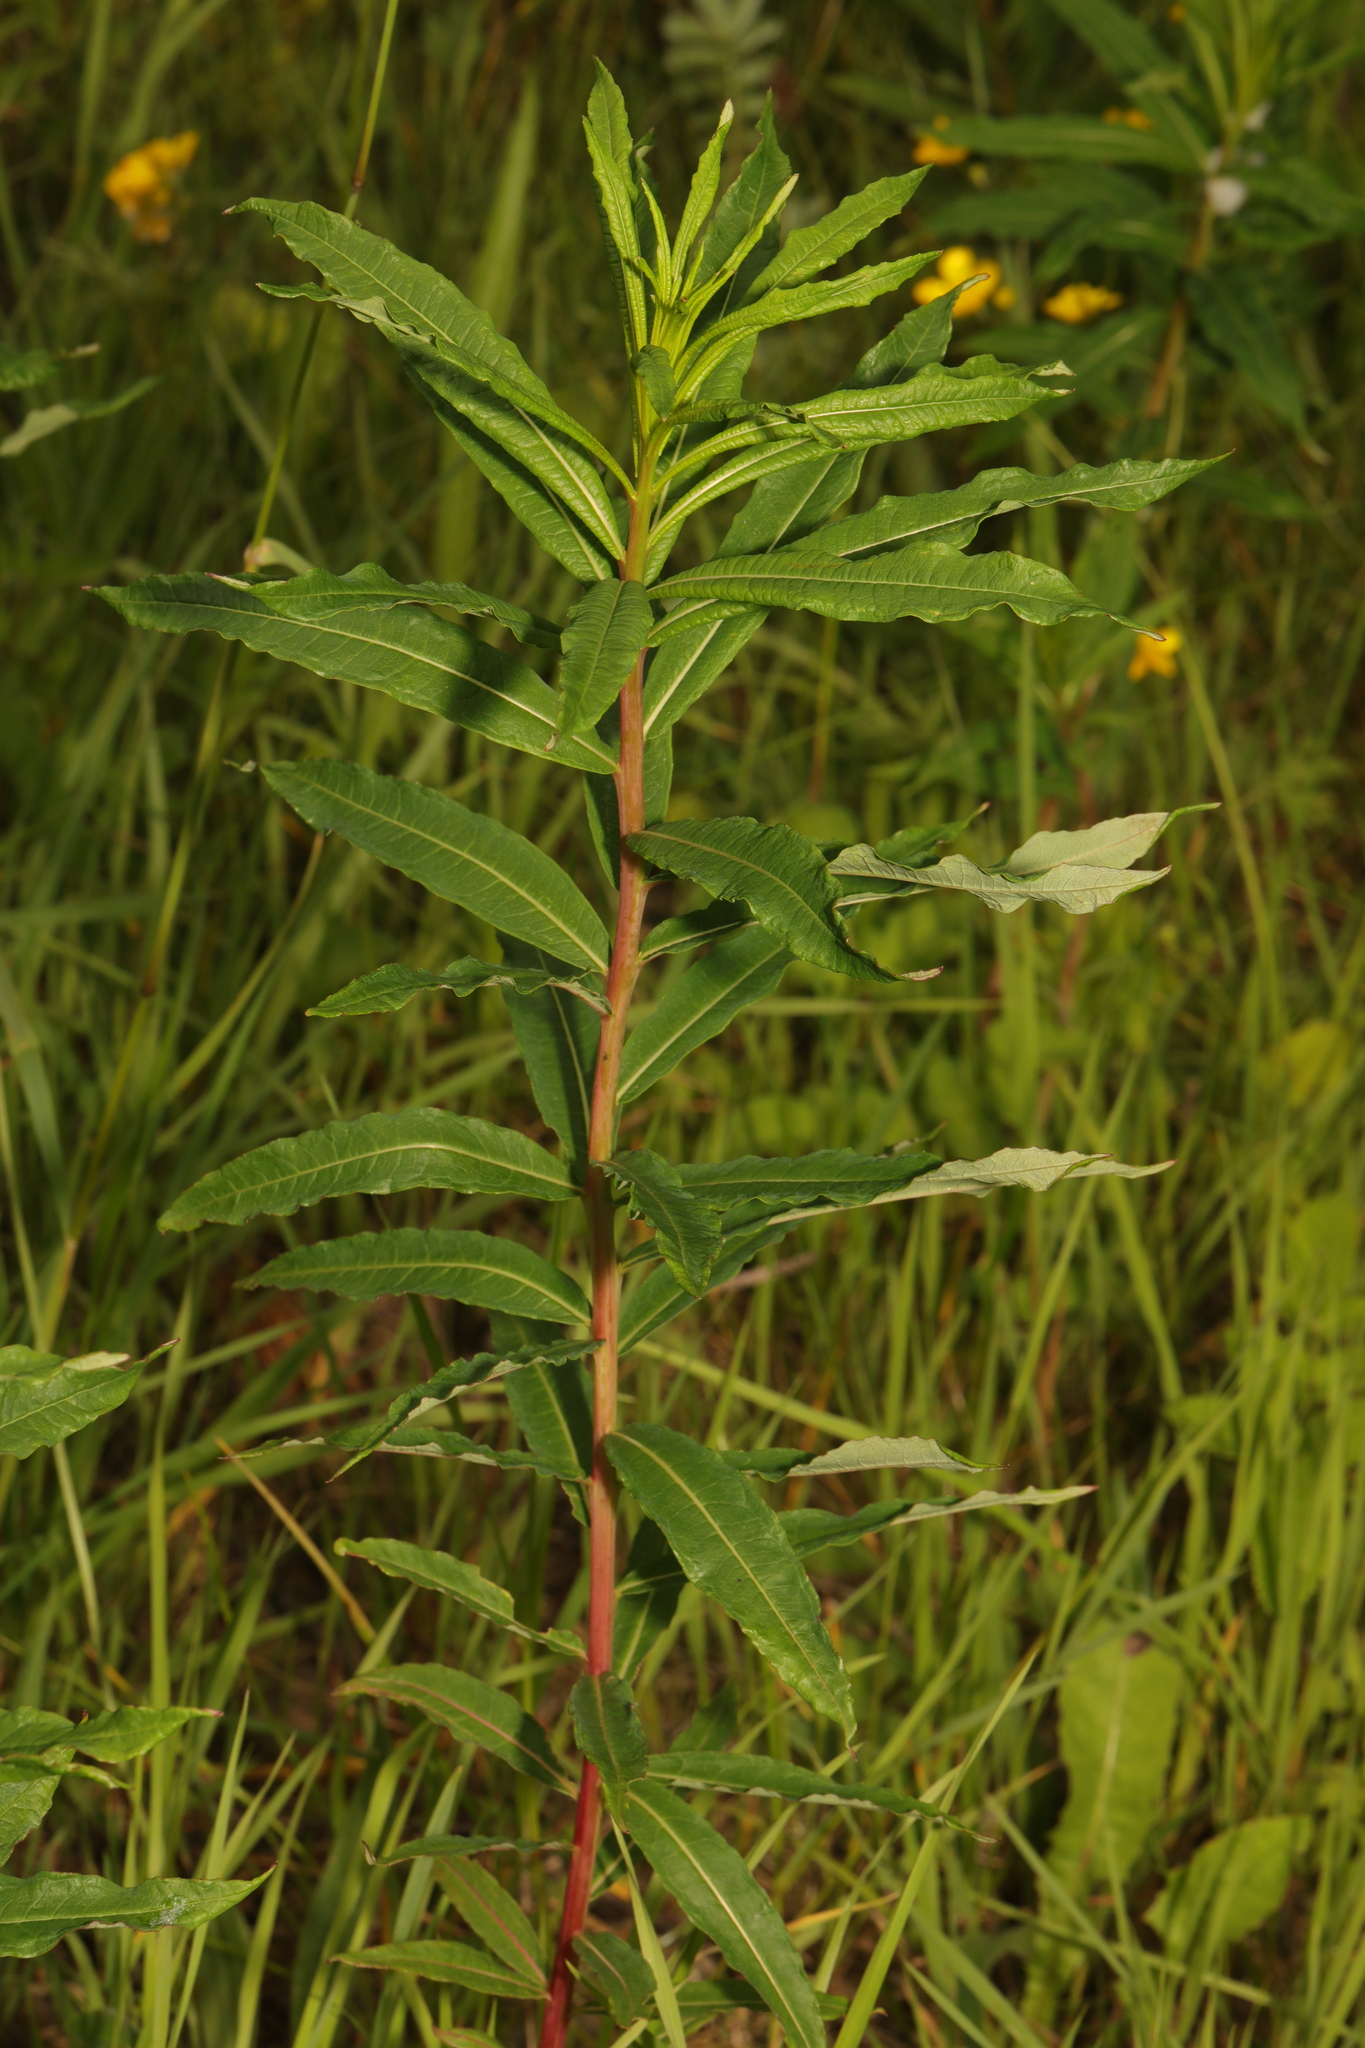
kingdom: Plantae
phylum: Tracheophyta
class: Magnoliopsida
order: Myrtales
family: Onagraceae
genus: Chamaenerion
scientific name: Chamaenerion angustifolium
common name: Fireweed
